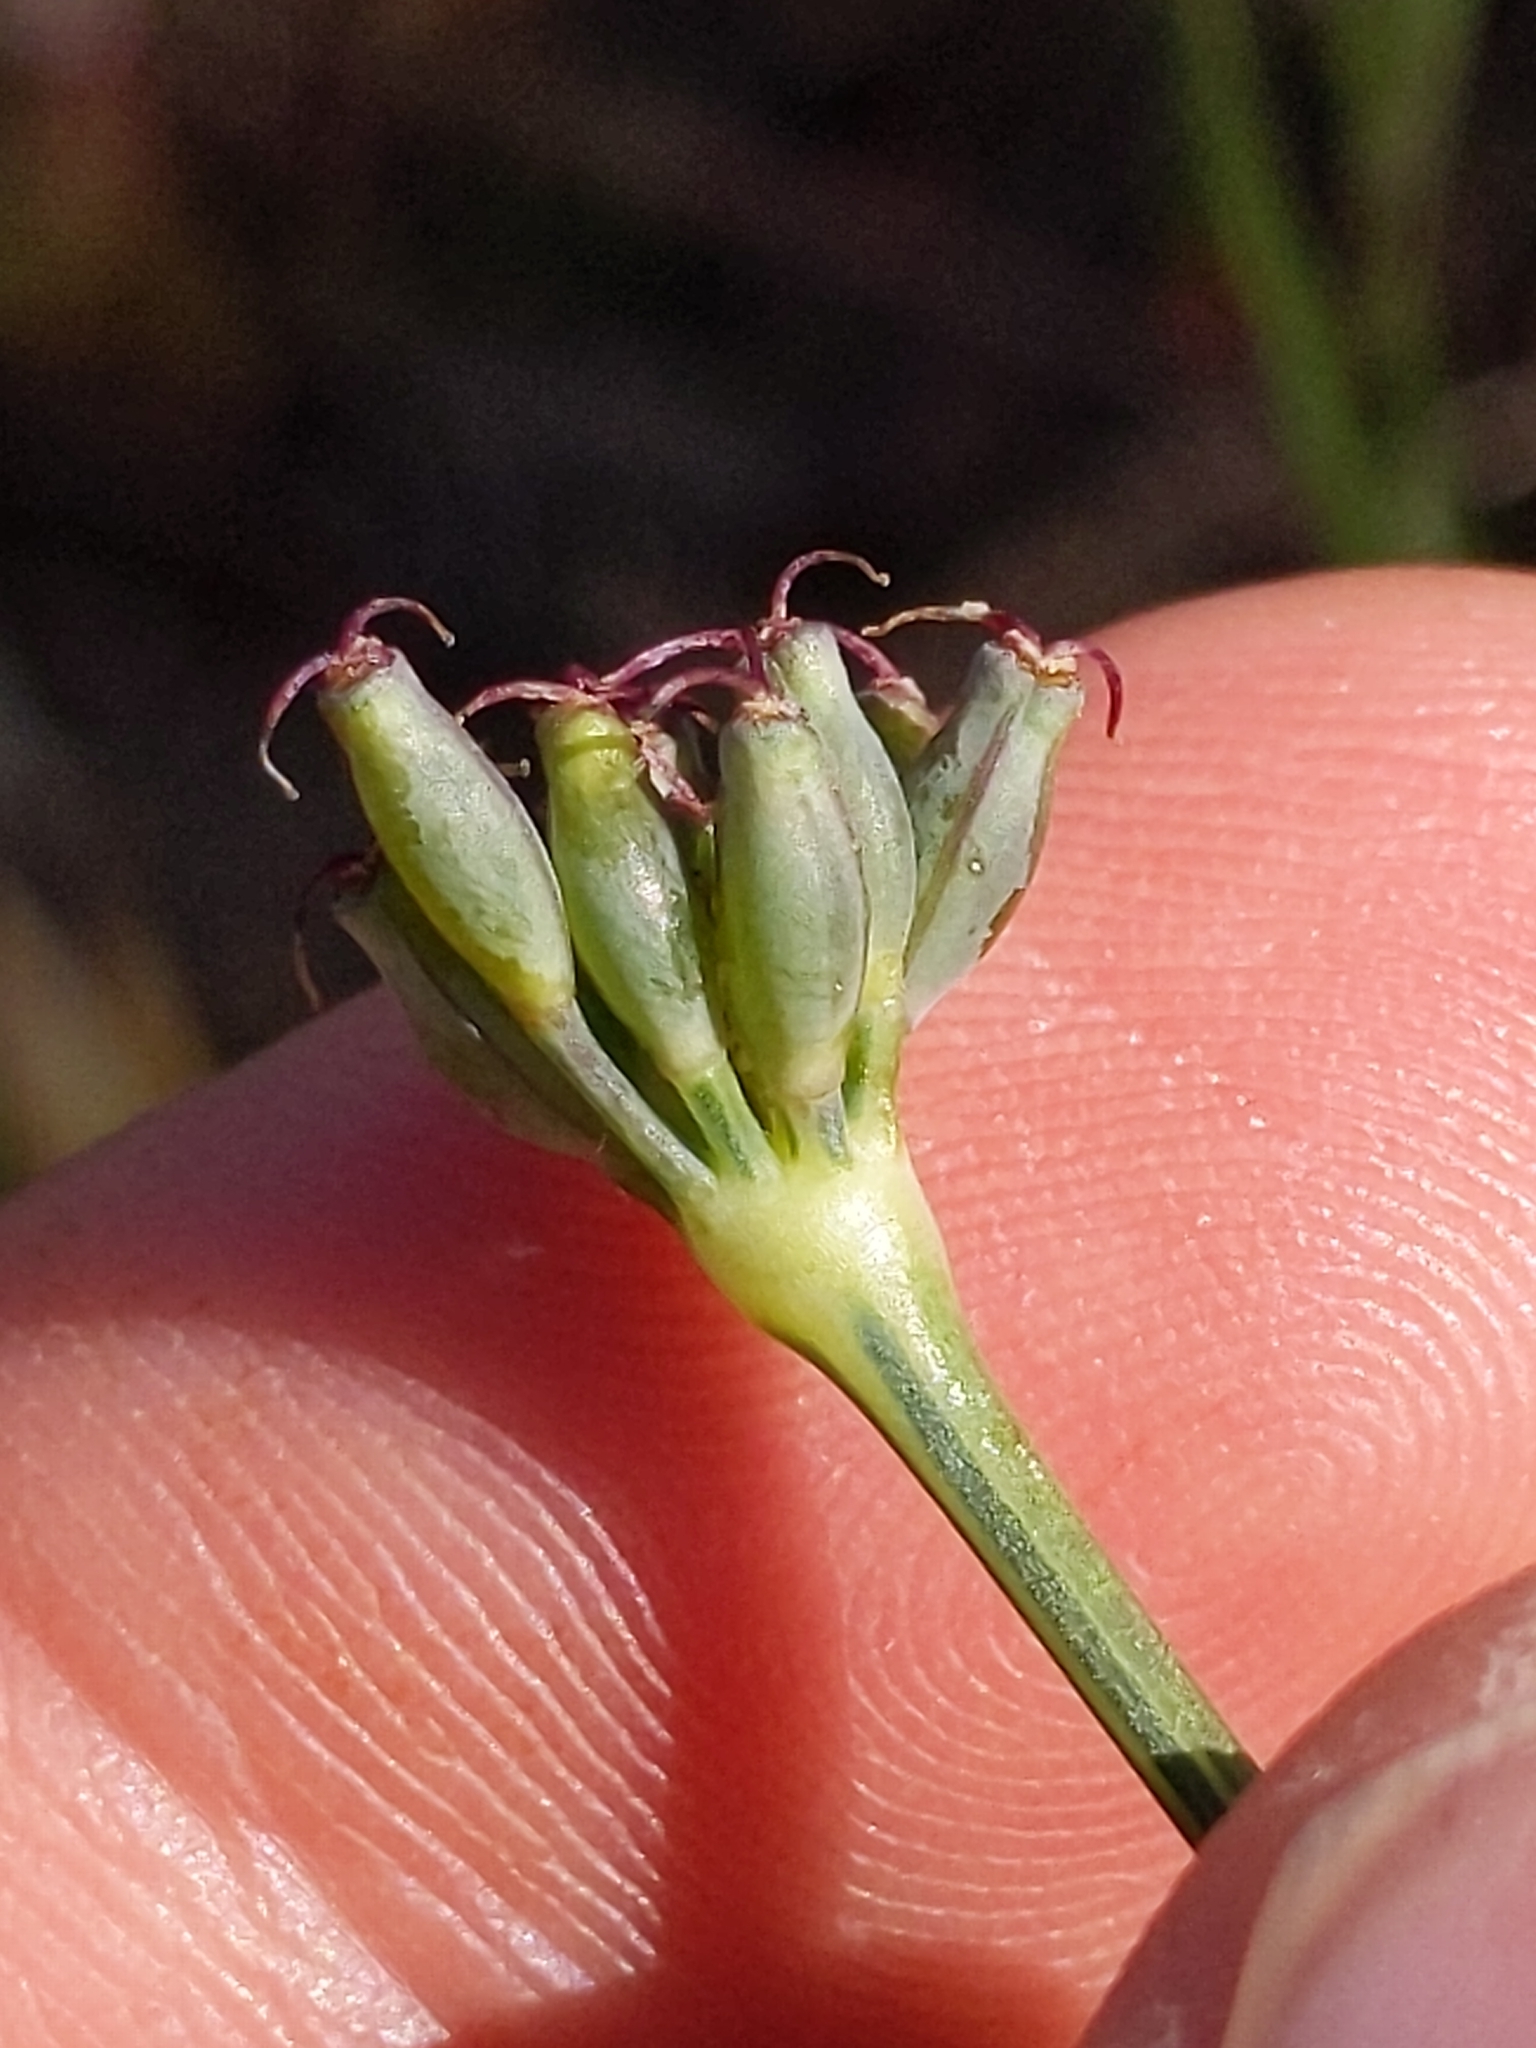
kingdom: Plantae
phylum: Tracheophyta
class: Magnoliopsida
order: Apiales
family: Apiaceae
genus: Lomatium
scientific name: Lomatium nudicaule
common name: Pestle lomatium
